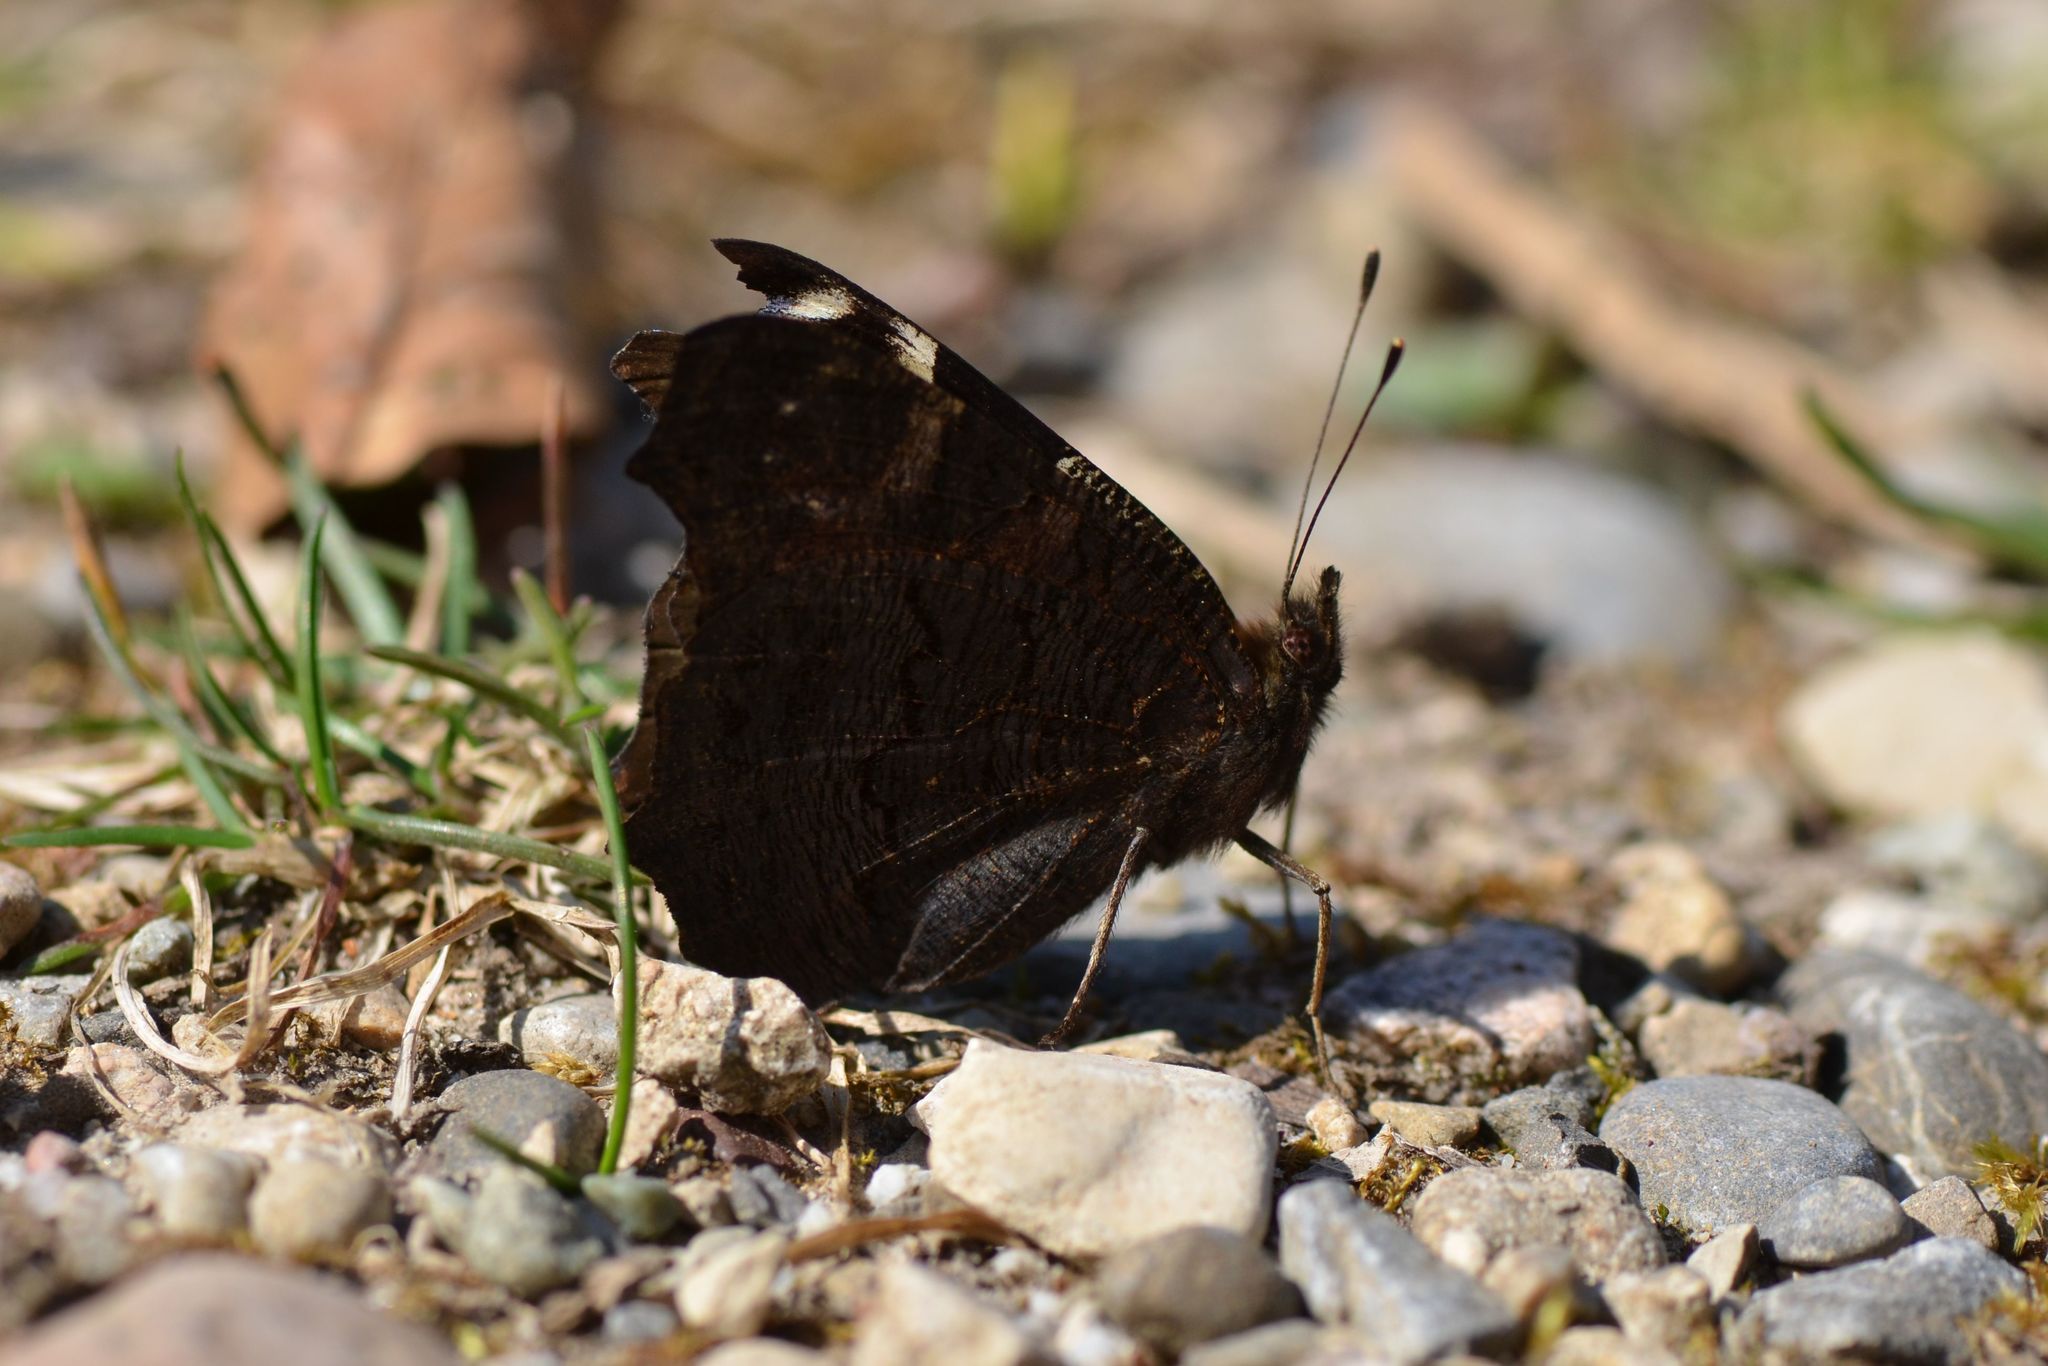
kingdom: Animalia
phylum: Arthropoda
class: Insecta
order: Lepidoptera
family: Nymphalidae
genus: Aglais
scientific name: Aglais io
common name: Peacock
